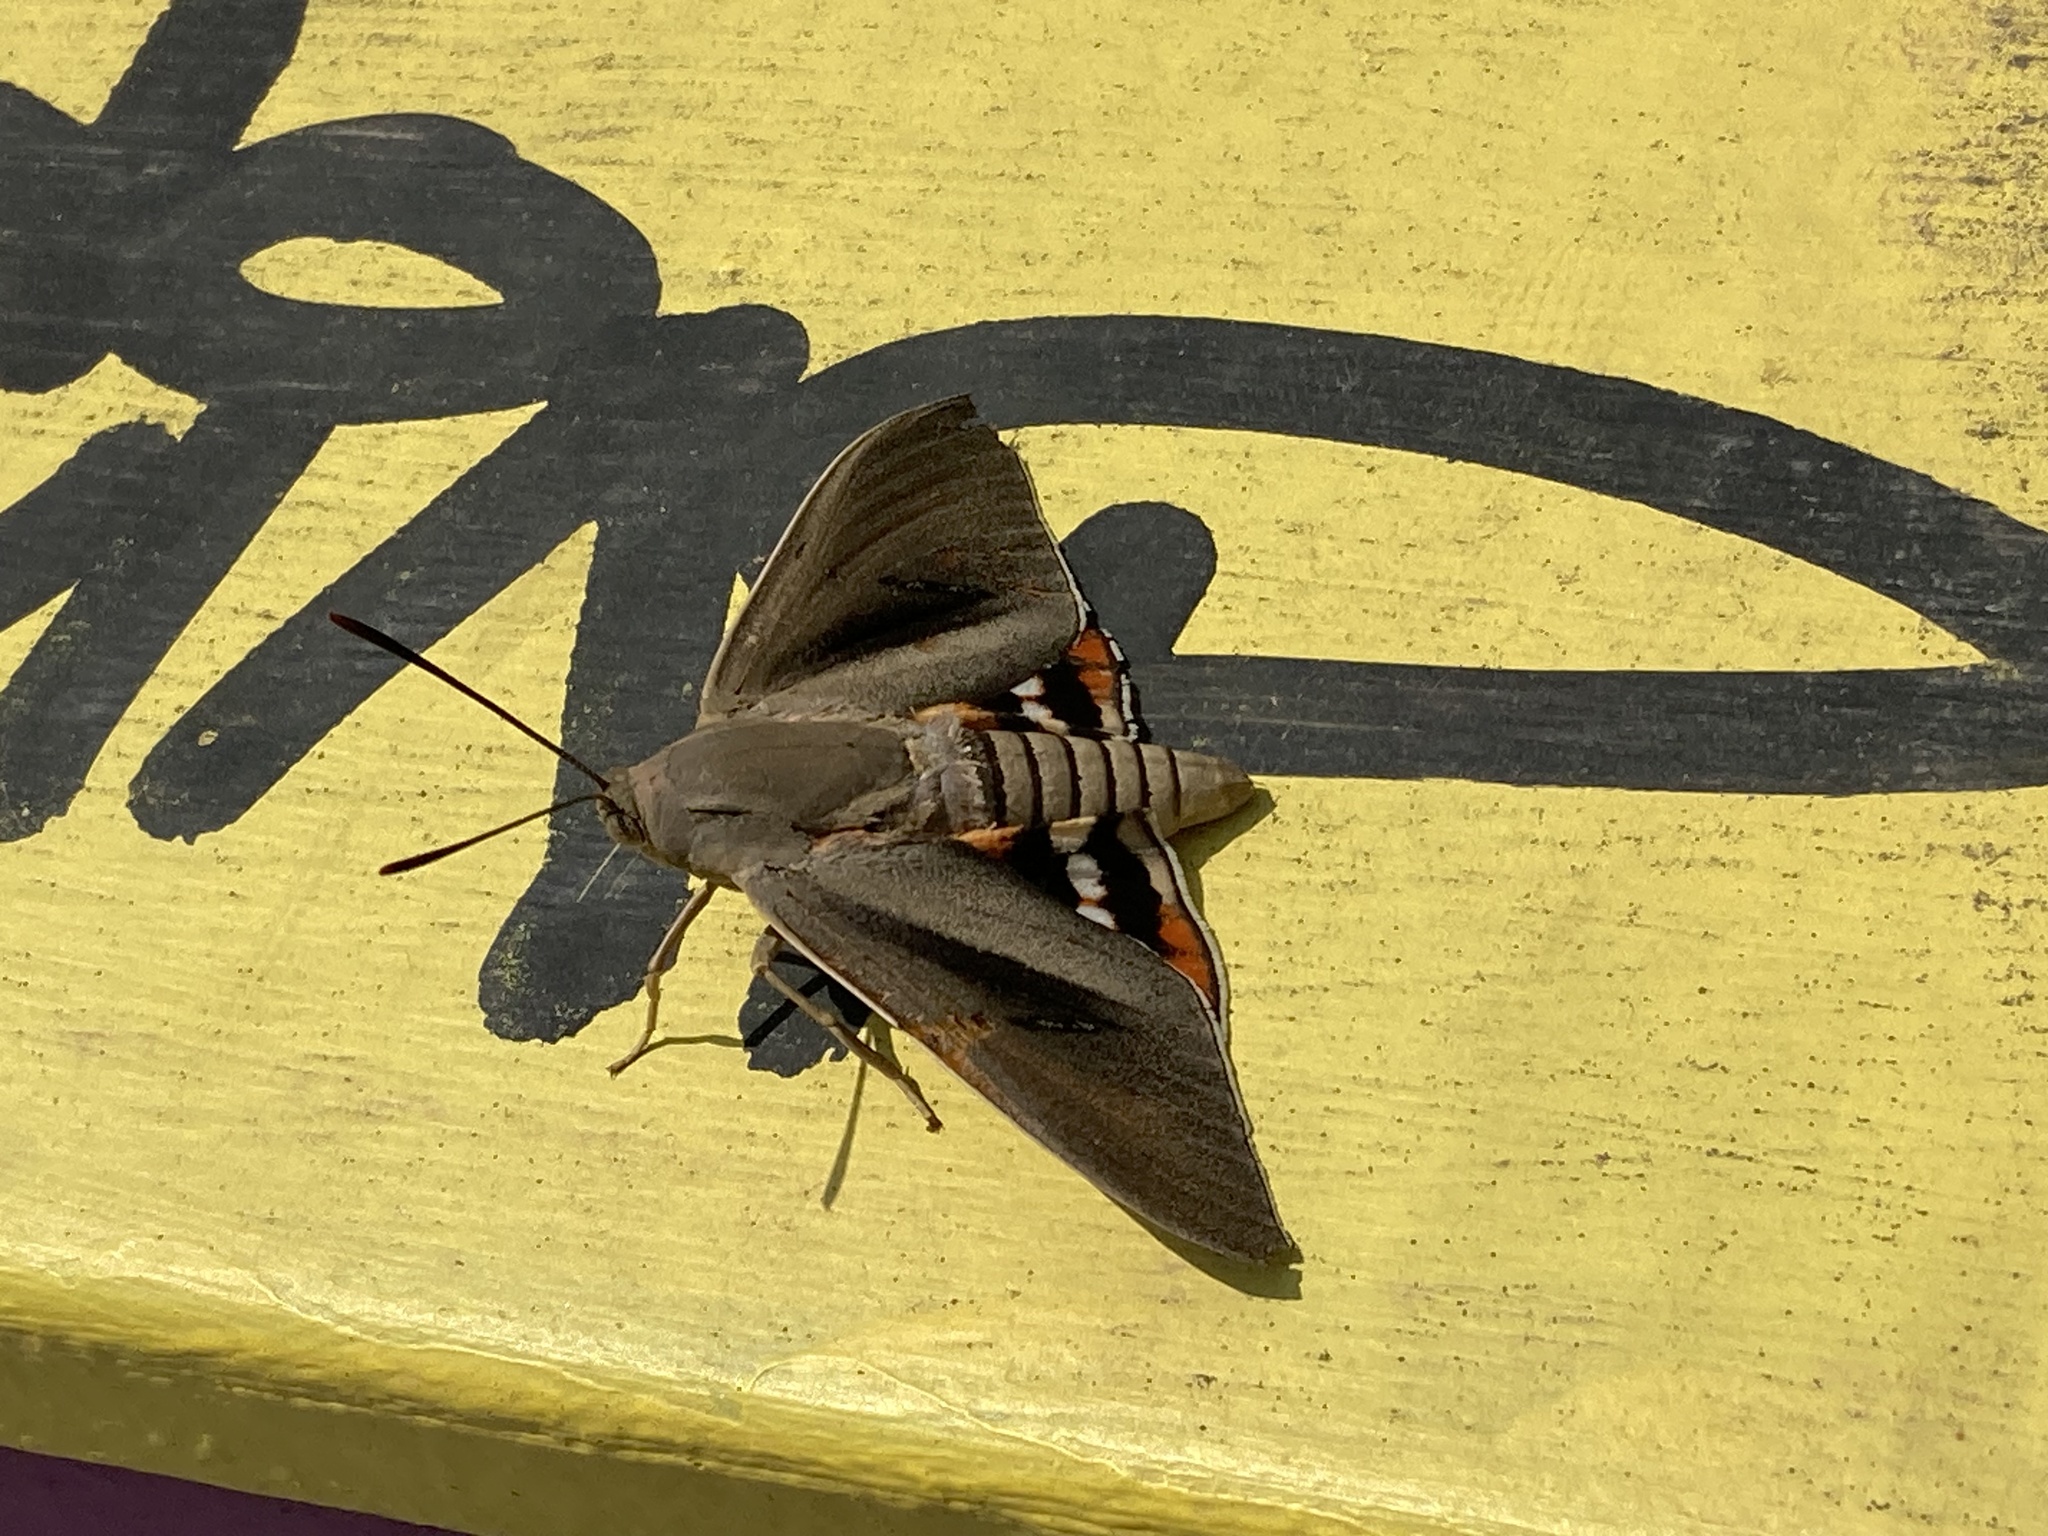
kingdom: Animalia
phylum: Arthropoda
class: Insecta
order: Lepidoptera
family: Castniidae
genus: Paysandisia
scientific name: Paysandisia archon
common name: Palm moth
